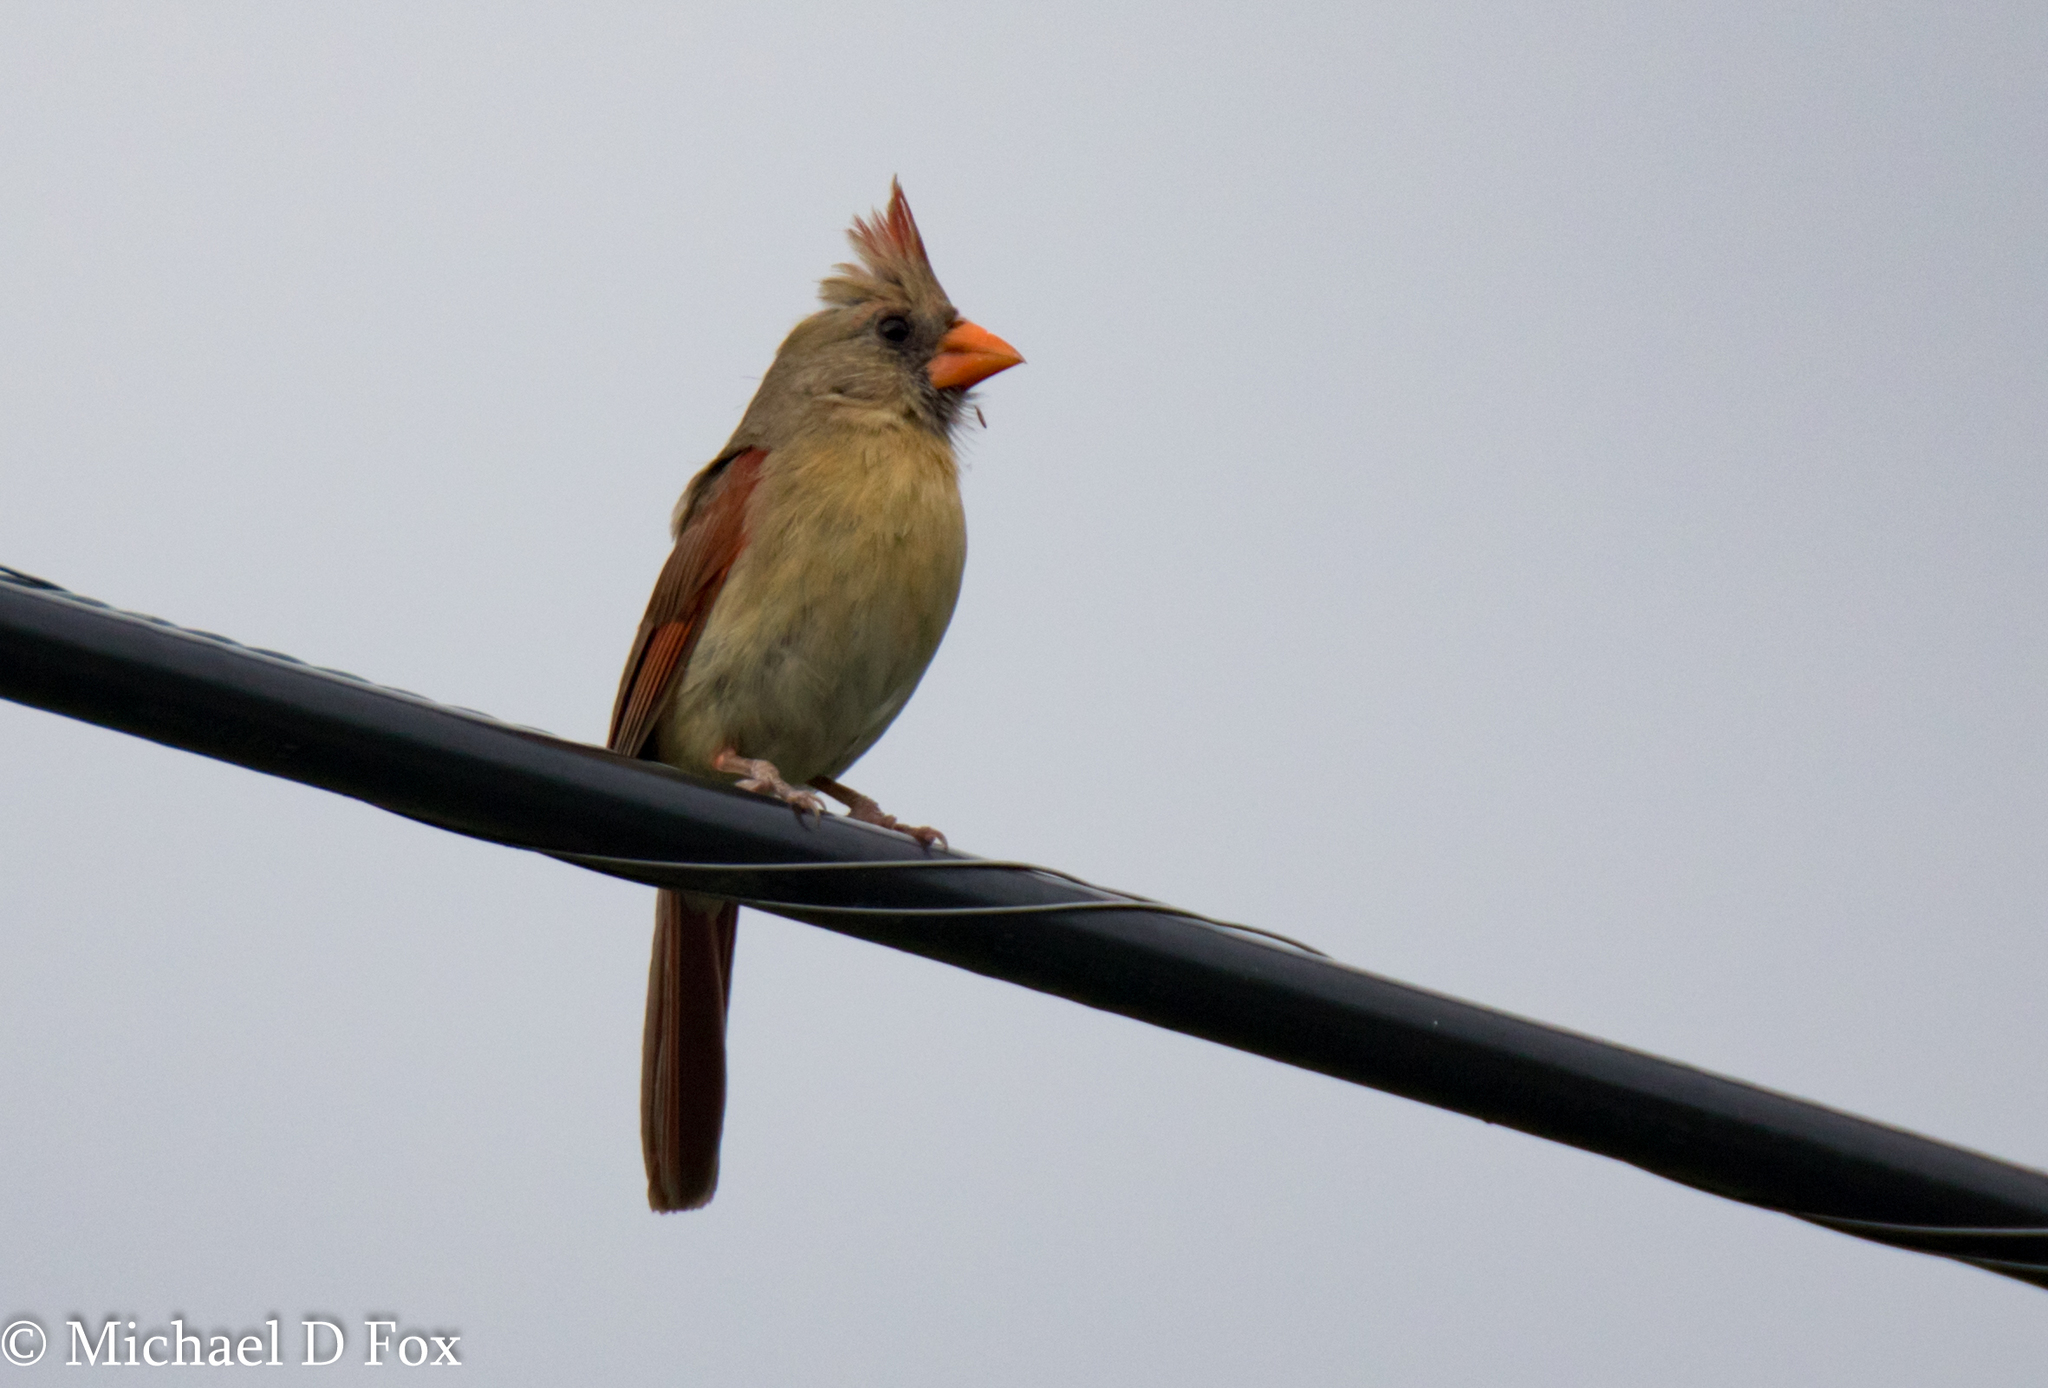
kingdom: Animalia
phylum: Chordata
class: Aves
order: Passeriformes
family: Cardinalidae
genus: Cardinalis
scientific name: Cardinalis cardinalis
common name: Northern cardinal
